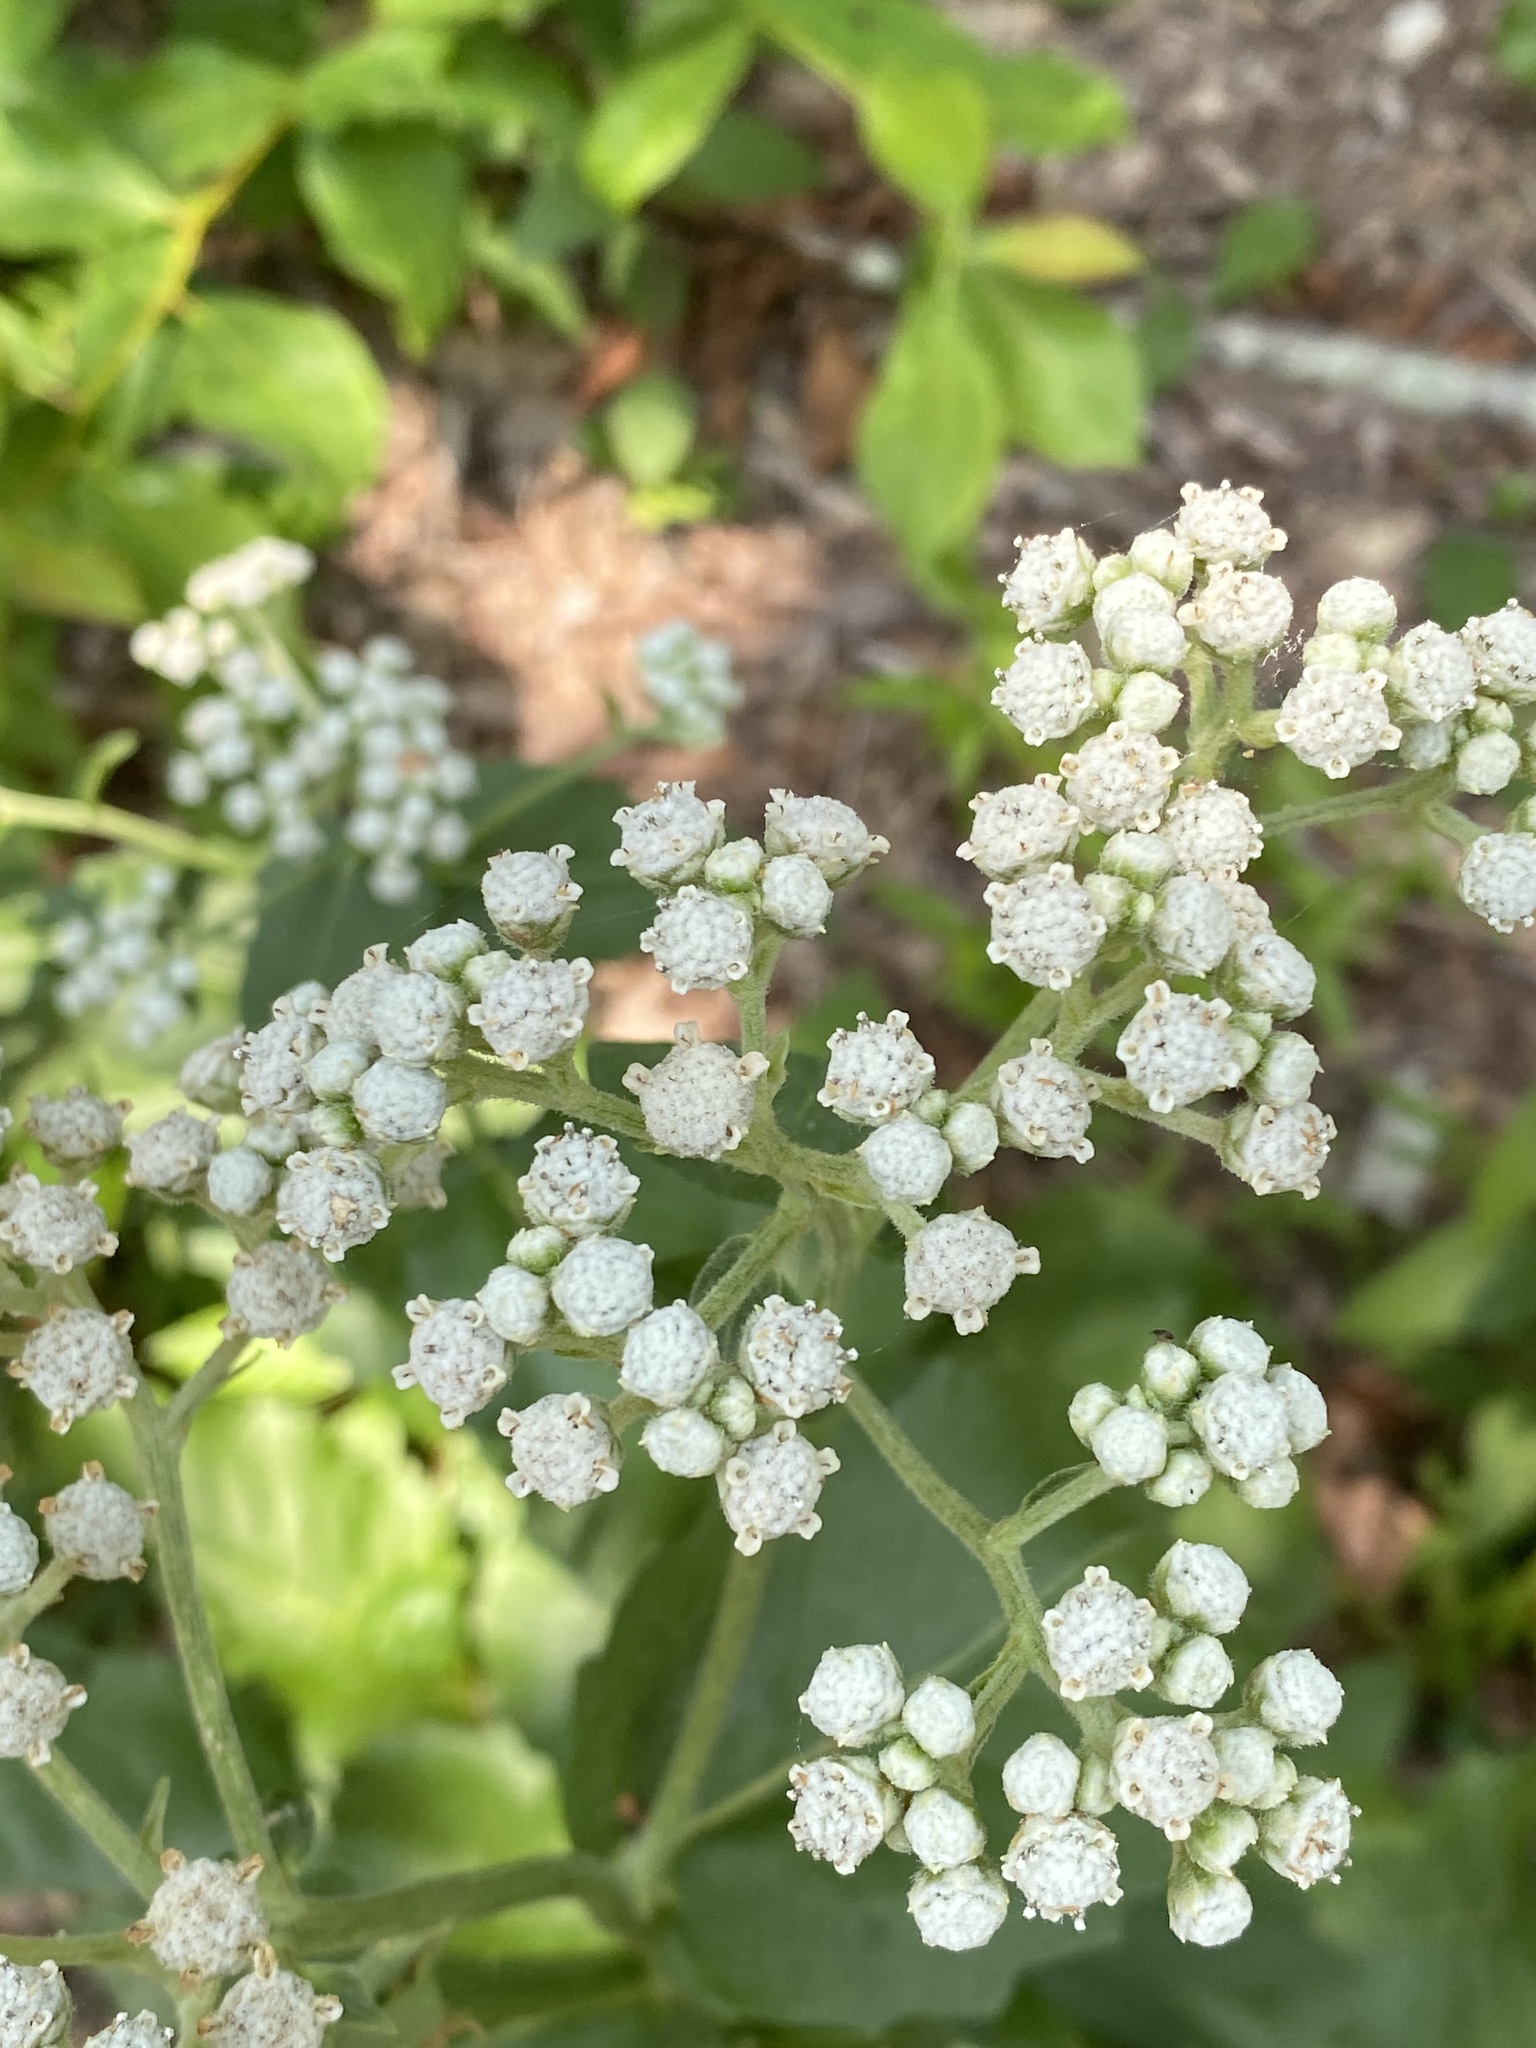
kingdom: Plantae
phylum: Tracheophyta
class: Magnoliopsida
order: Asterales
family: Asteraceae
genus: Parthenium
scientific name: Parthenium integrifolium
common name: American feverfew
